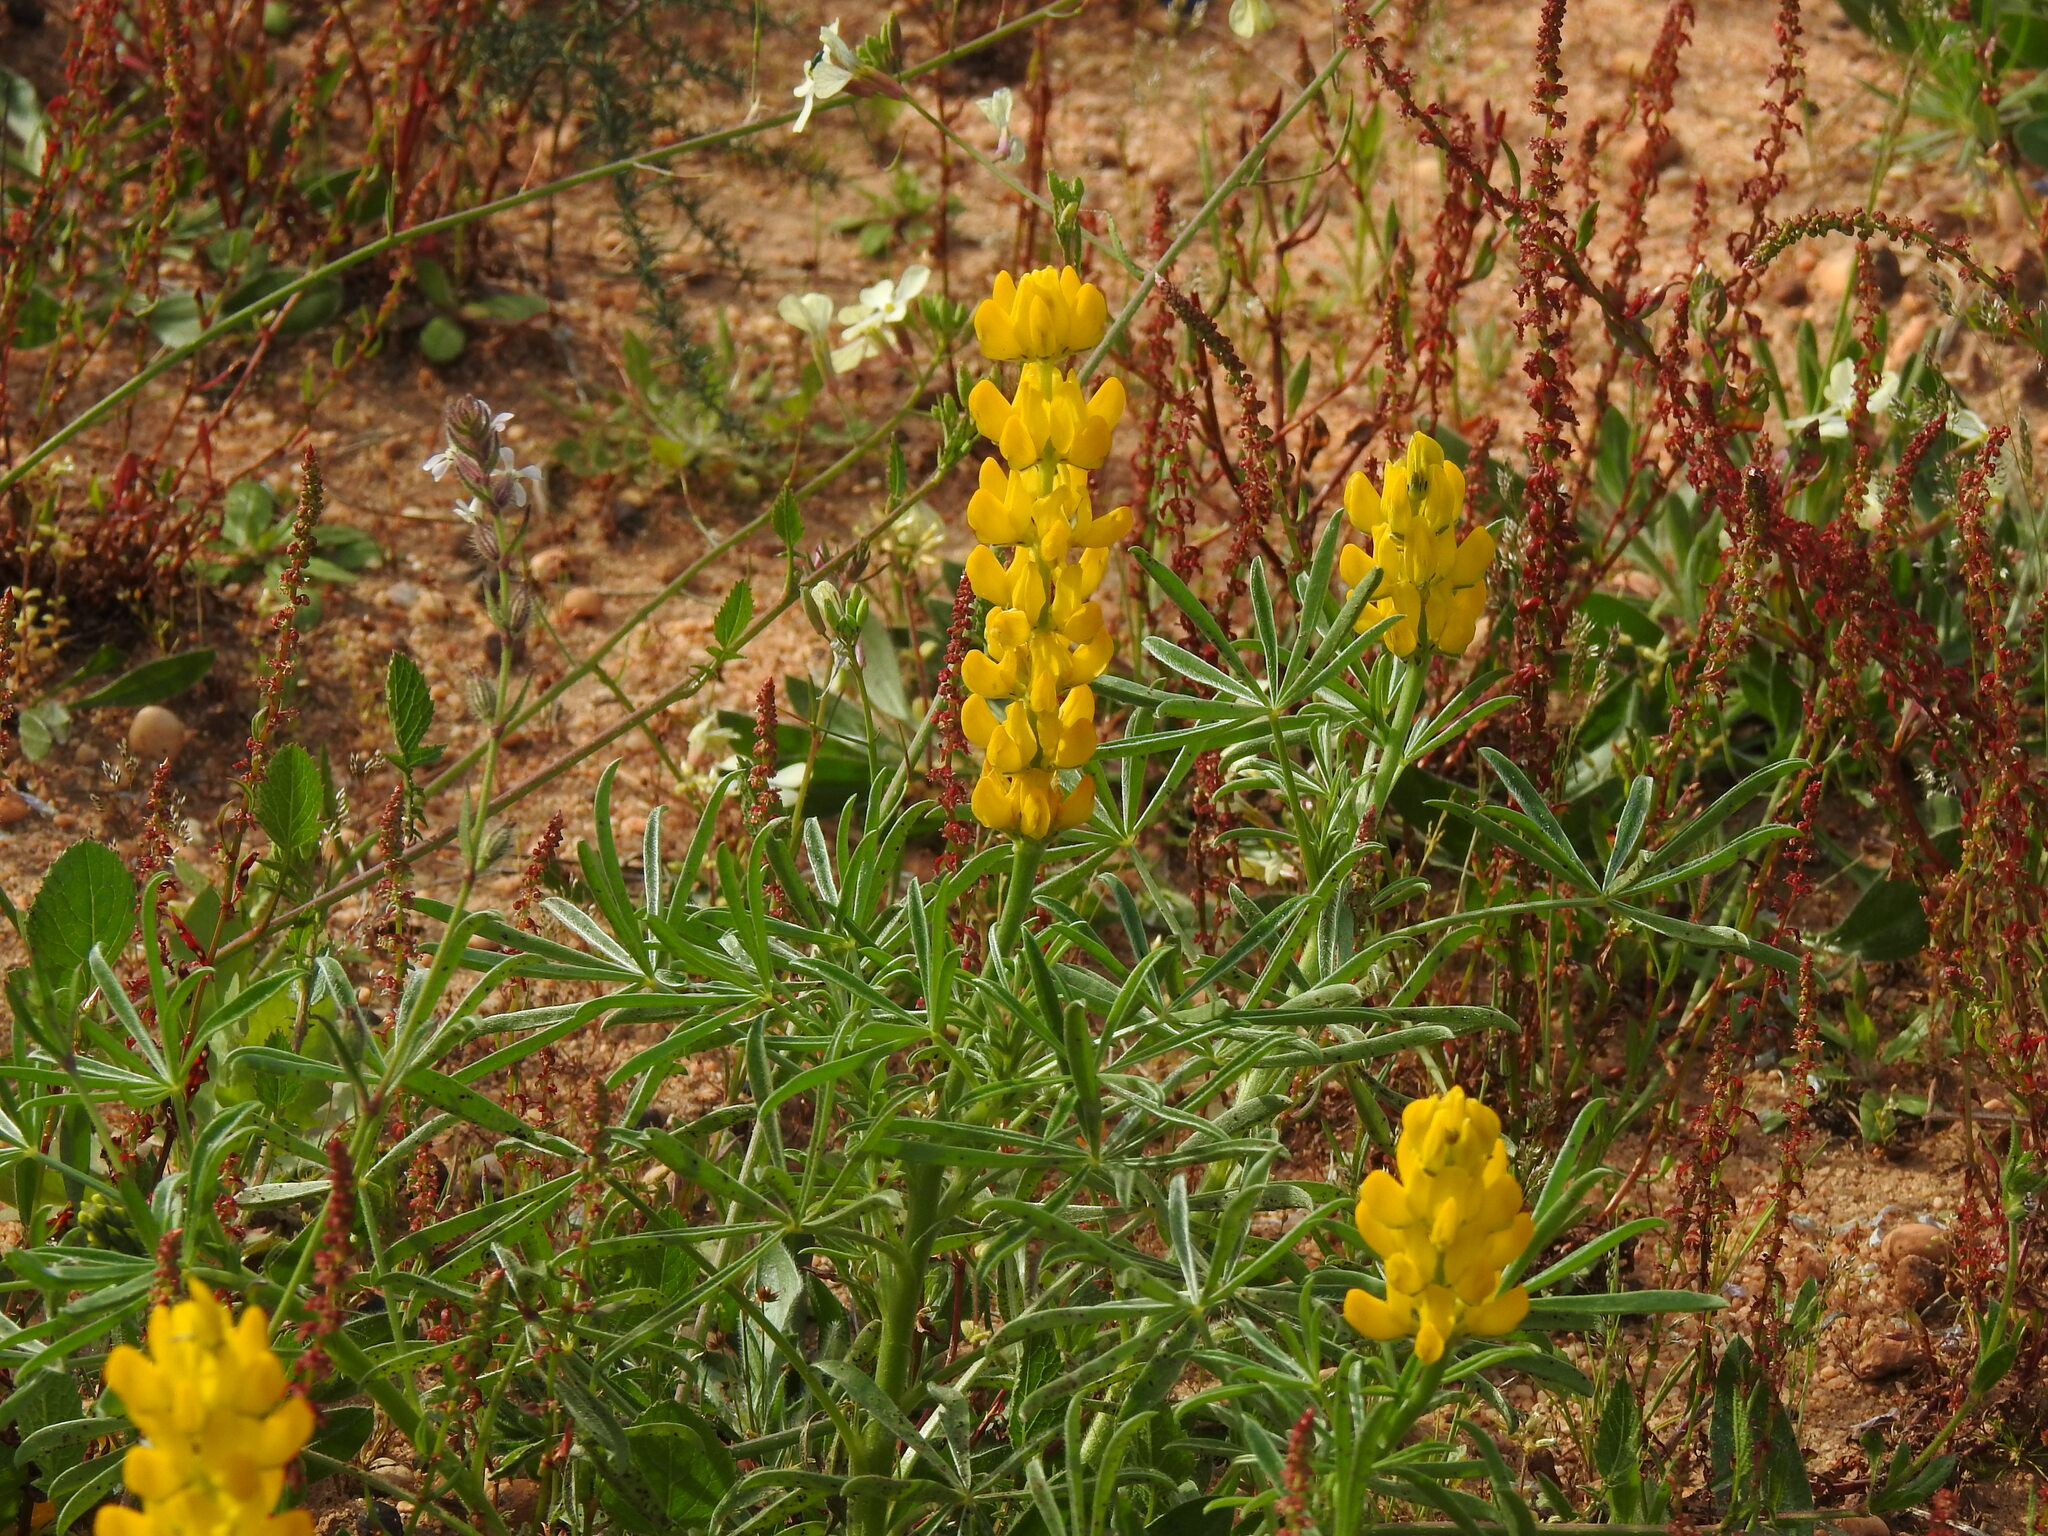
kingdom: Plantae
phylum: Tracheophyta
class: Magnoliopsida
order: Fabales
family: Fabaceae
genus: Lupinus
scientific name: Lupinus luteus
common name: European yellow lupine
